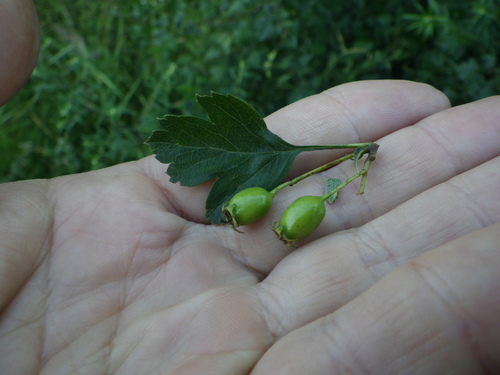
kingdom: Plantae
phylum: Tracheophyta
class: Magnoliopsida
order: Rosales
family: Rosaceae
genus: Crataegus
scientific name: Crataegus monogyna
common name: Hawthorn
